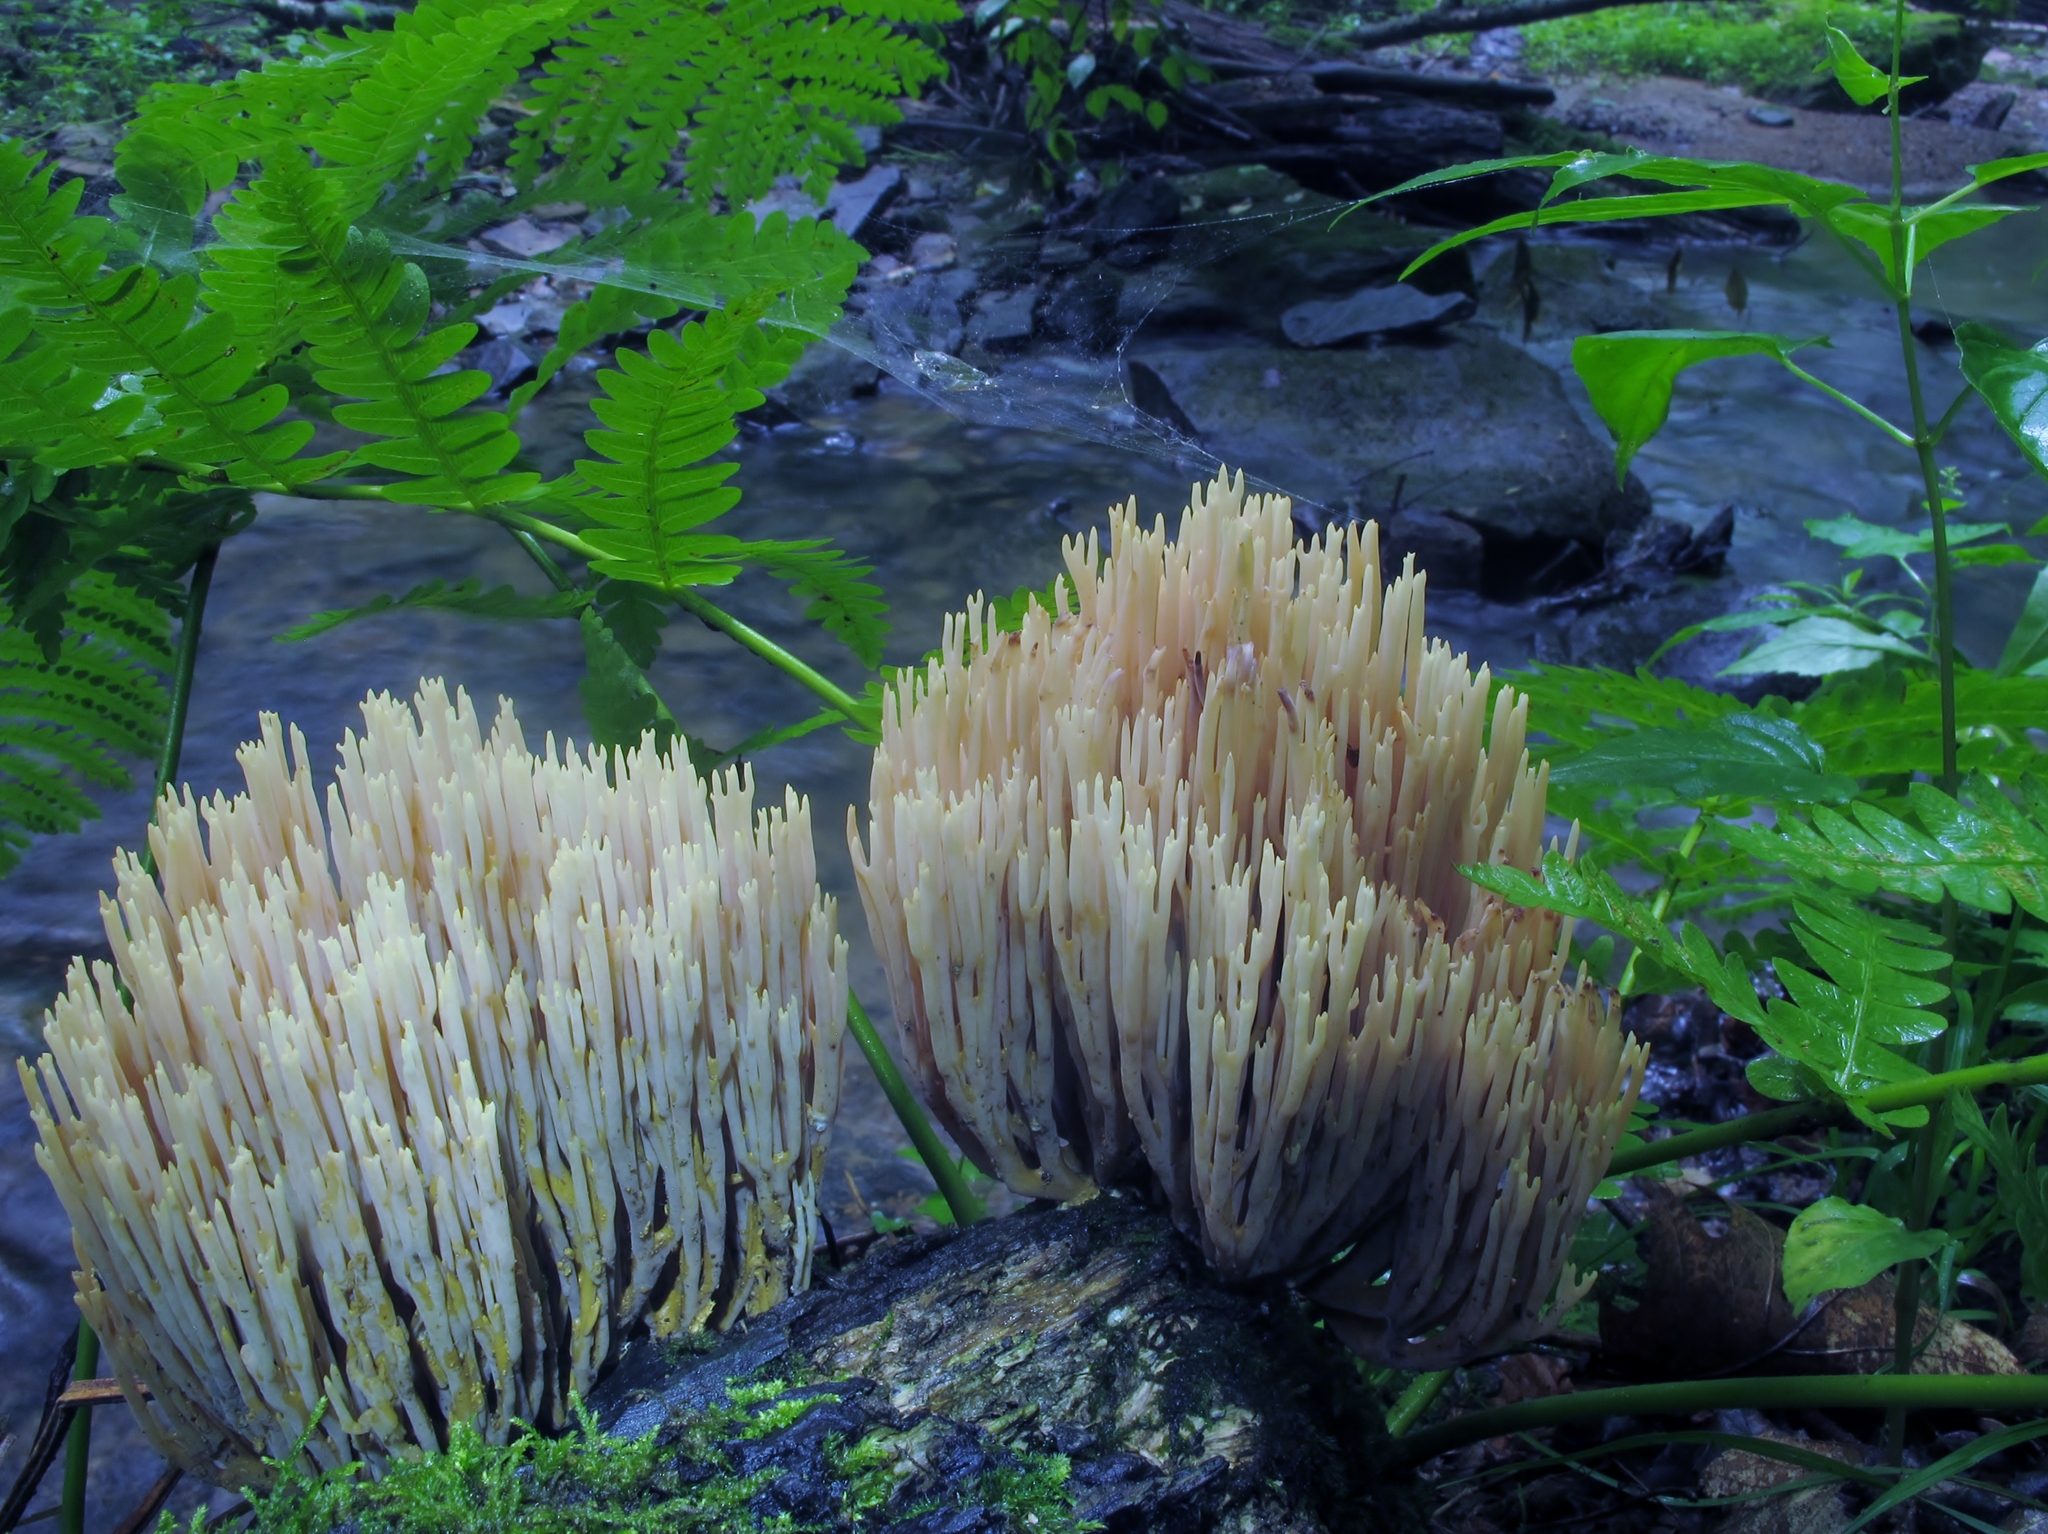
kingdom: Fungi
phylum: Basidiomycota
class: Agaricomycetes
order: Gomphales
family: Gomphaceae
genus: Ramaria
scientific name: Ramaria stricta
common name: Upright coral
